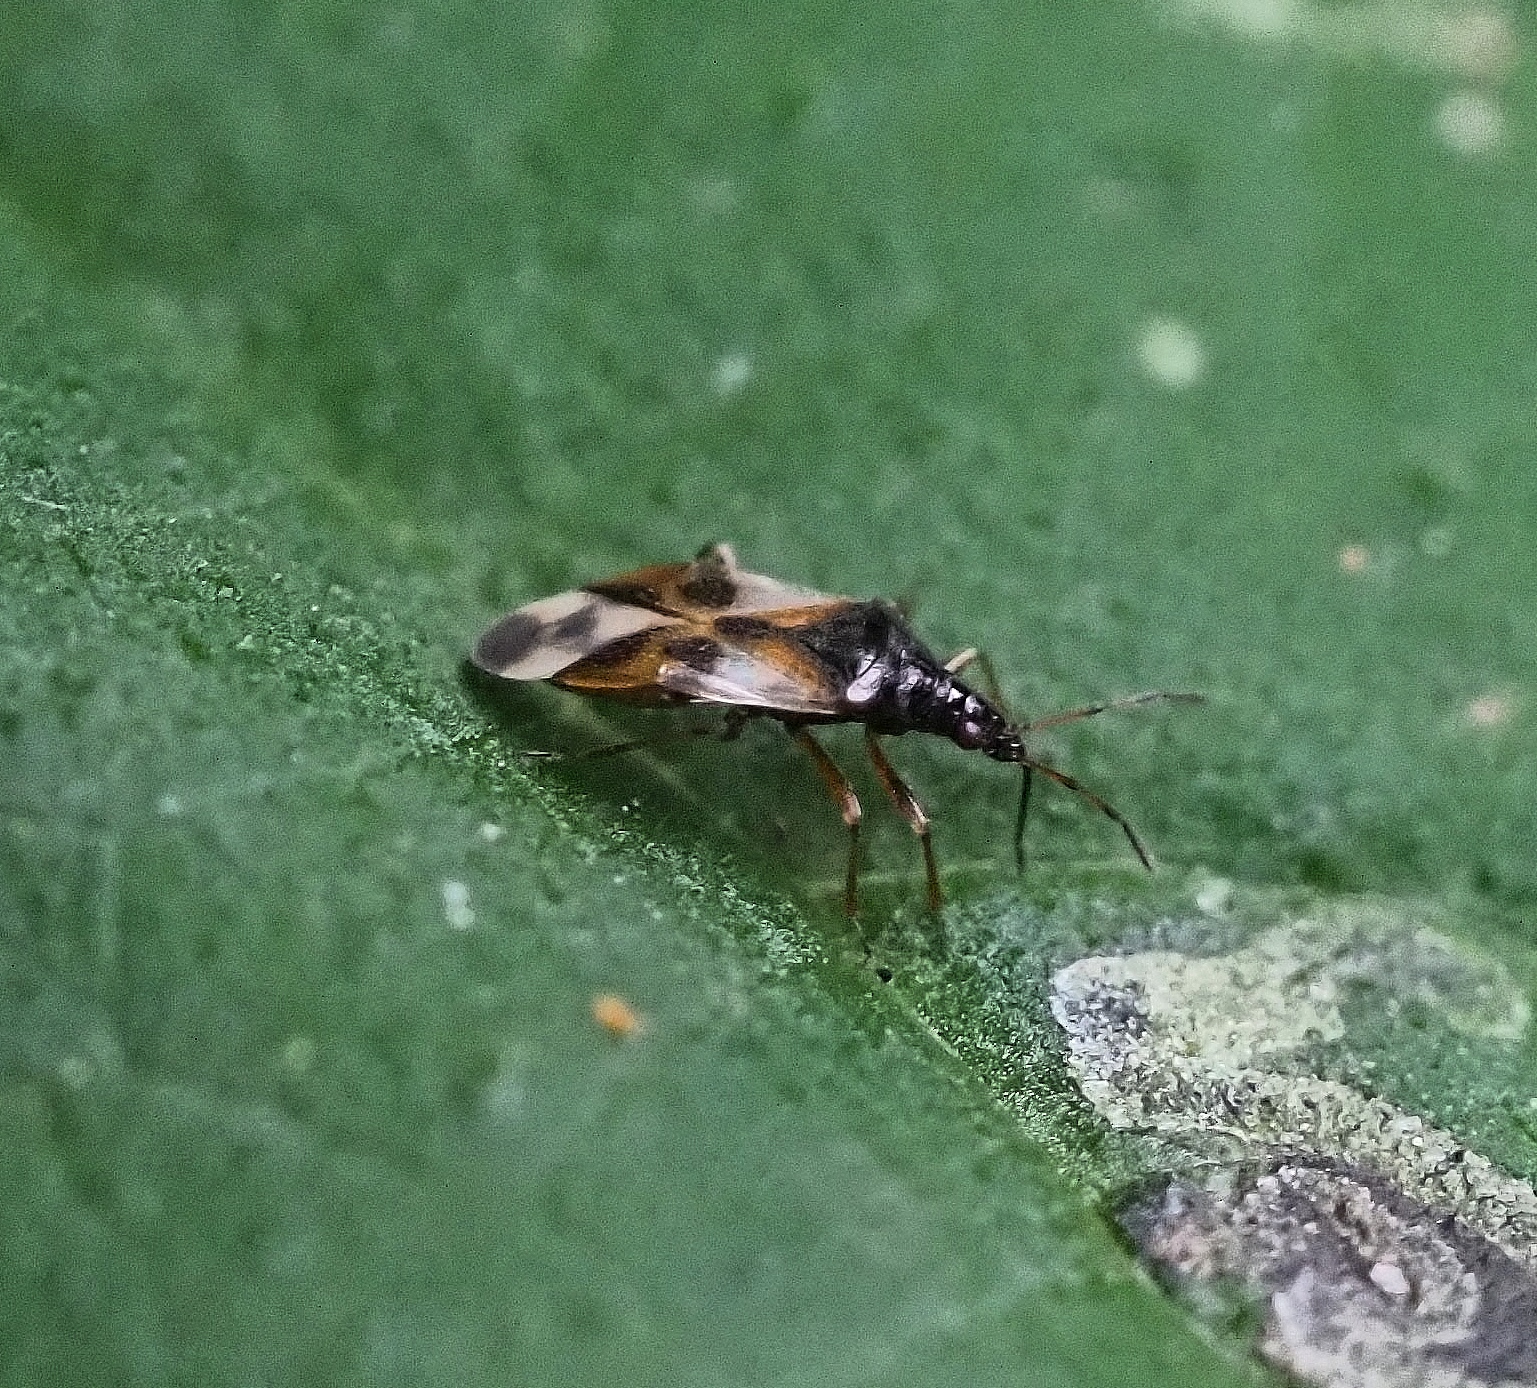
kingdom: Animalia
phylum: Arthropoda
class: Insecta
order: Hemiptera
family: Anthocoridae
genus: Anthocoris
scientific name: Anthocoris nemorum
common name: Minute pirate bug
